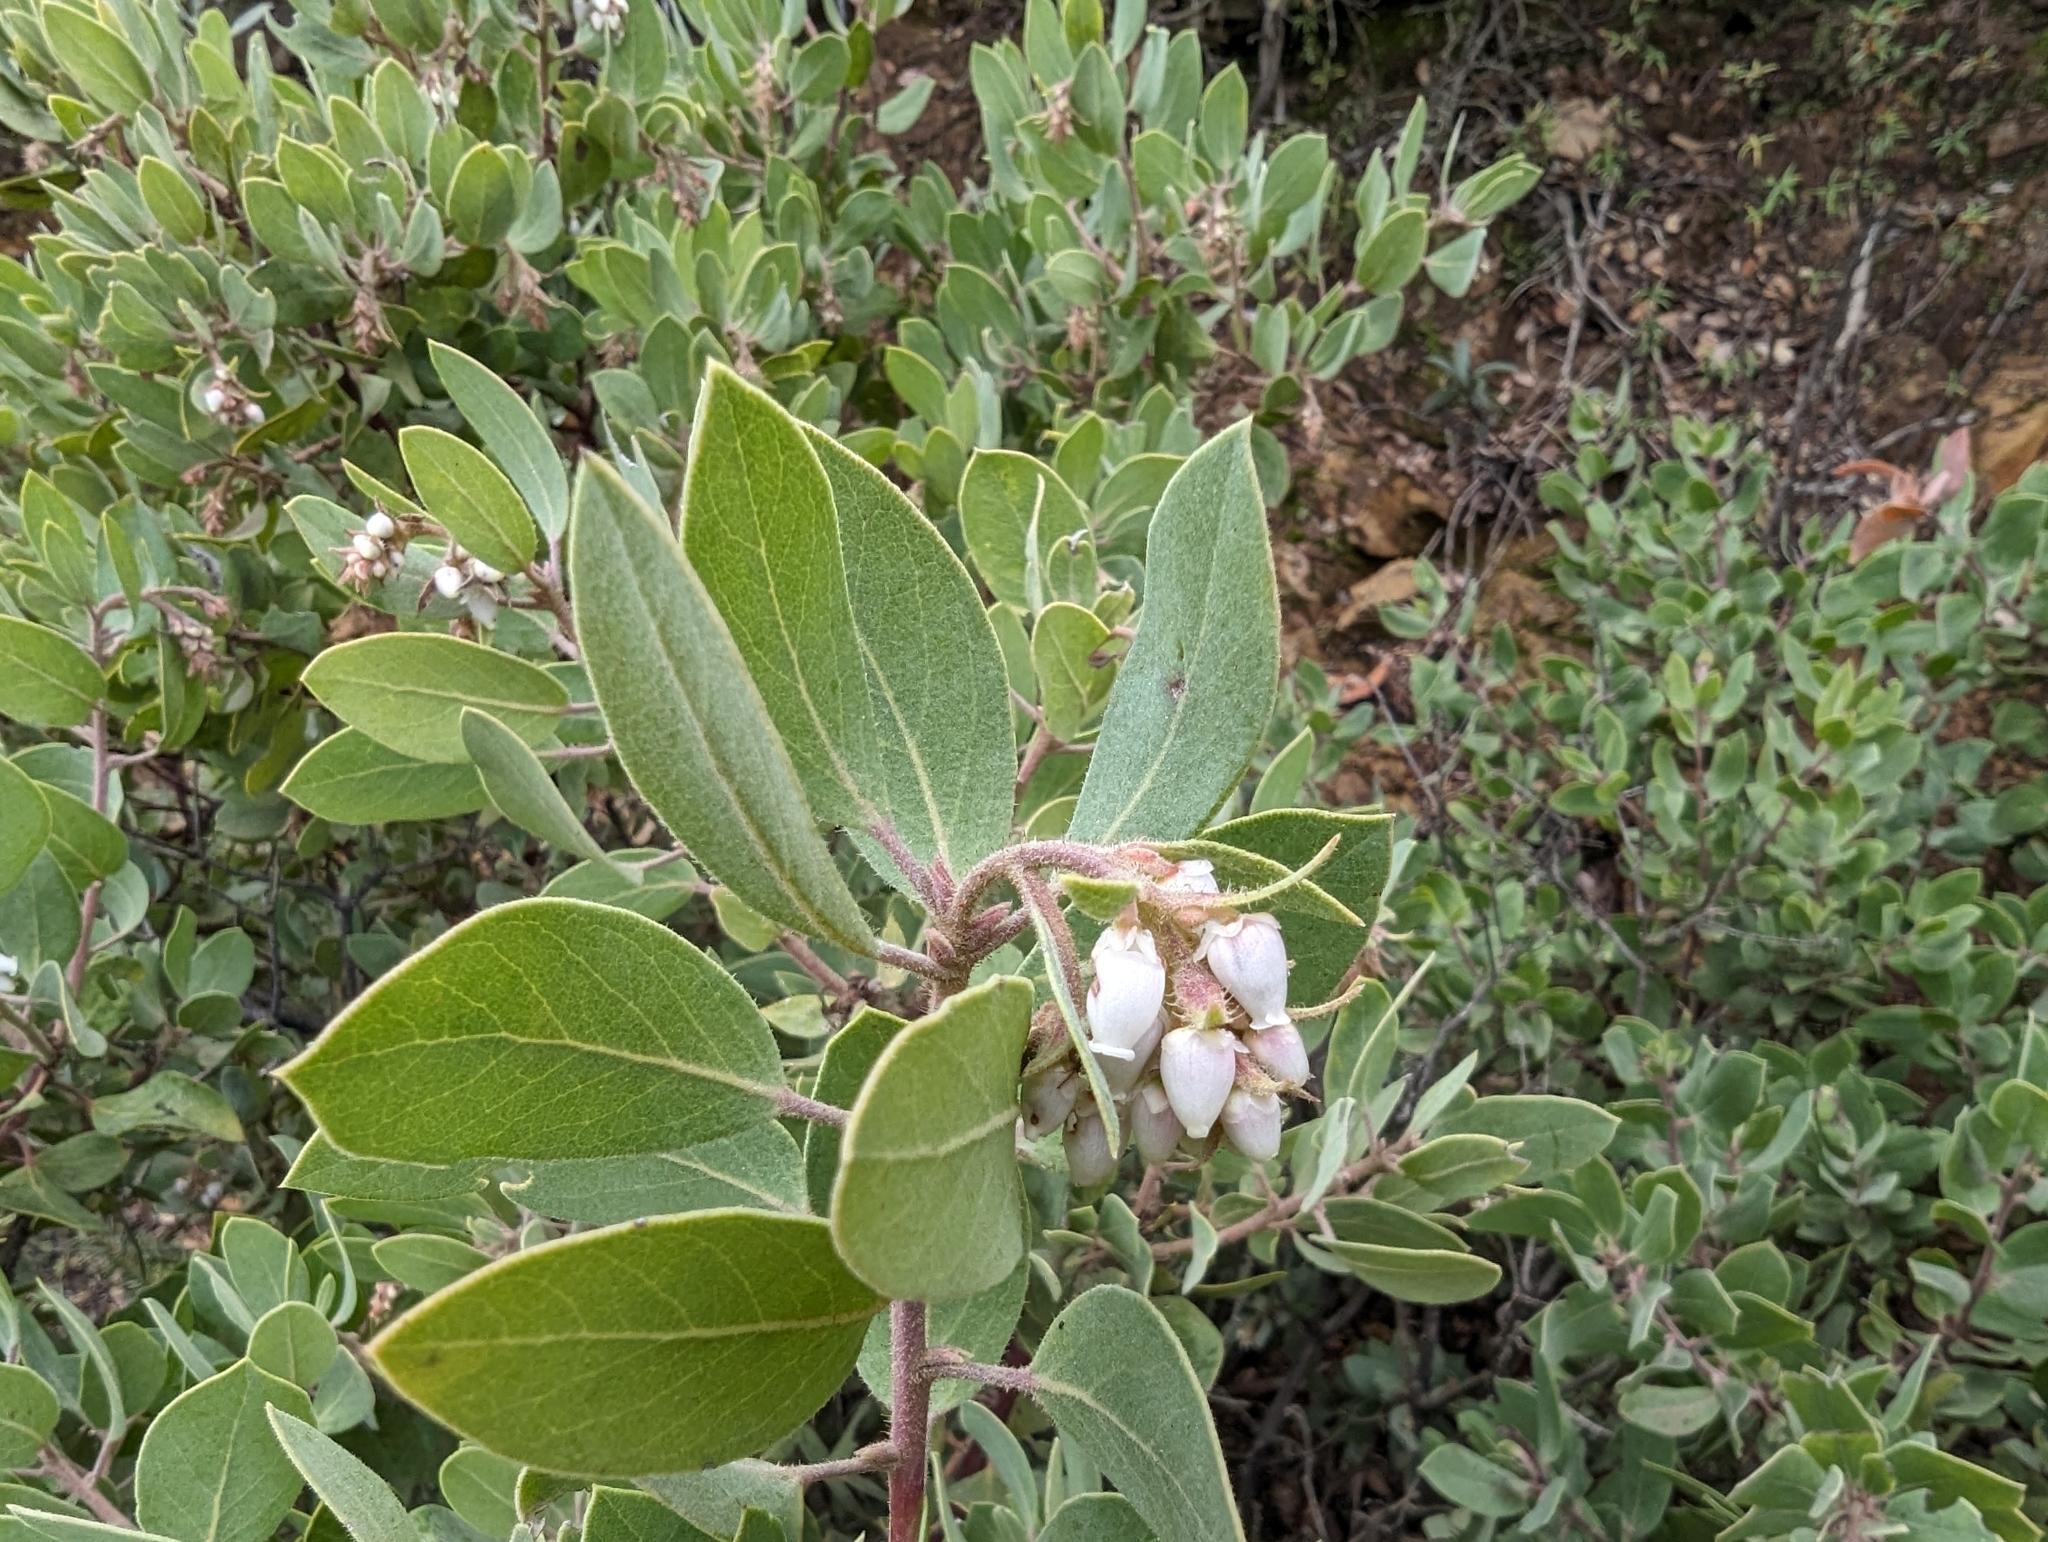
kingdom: Plantae
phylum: Tracheophyta
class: Magnoliopsida
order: Ericales
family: Ericaceae
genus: Arctostaphylos
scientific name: Arctostaphylos glandulosa
